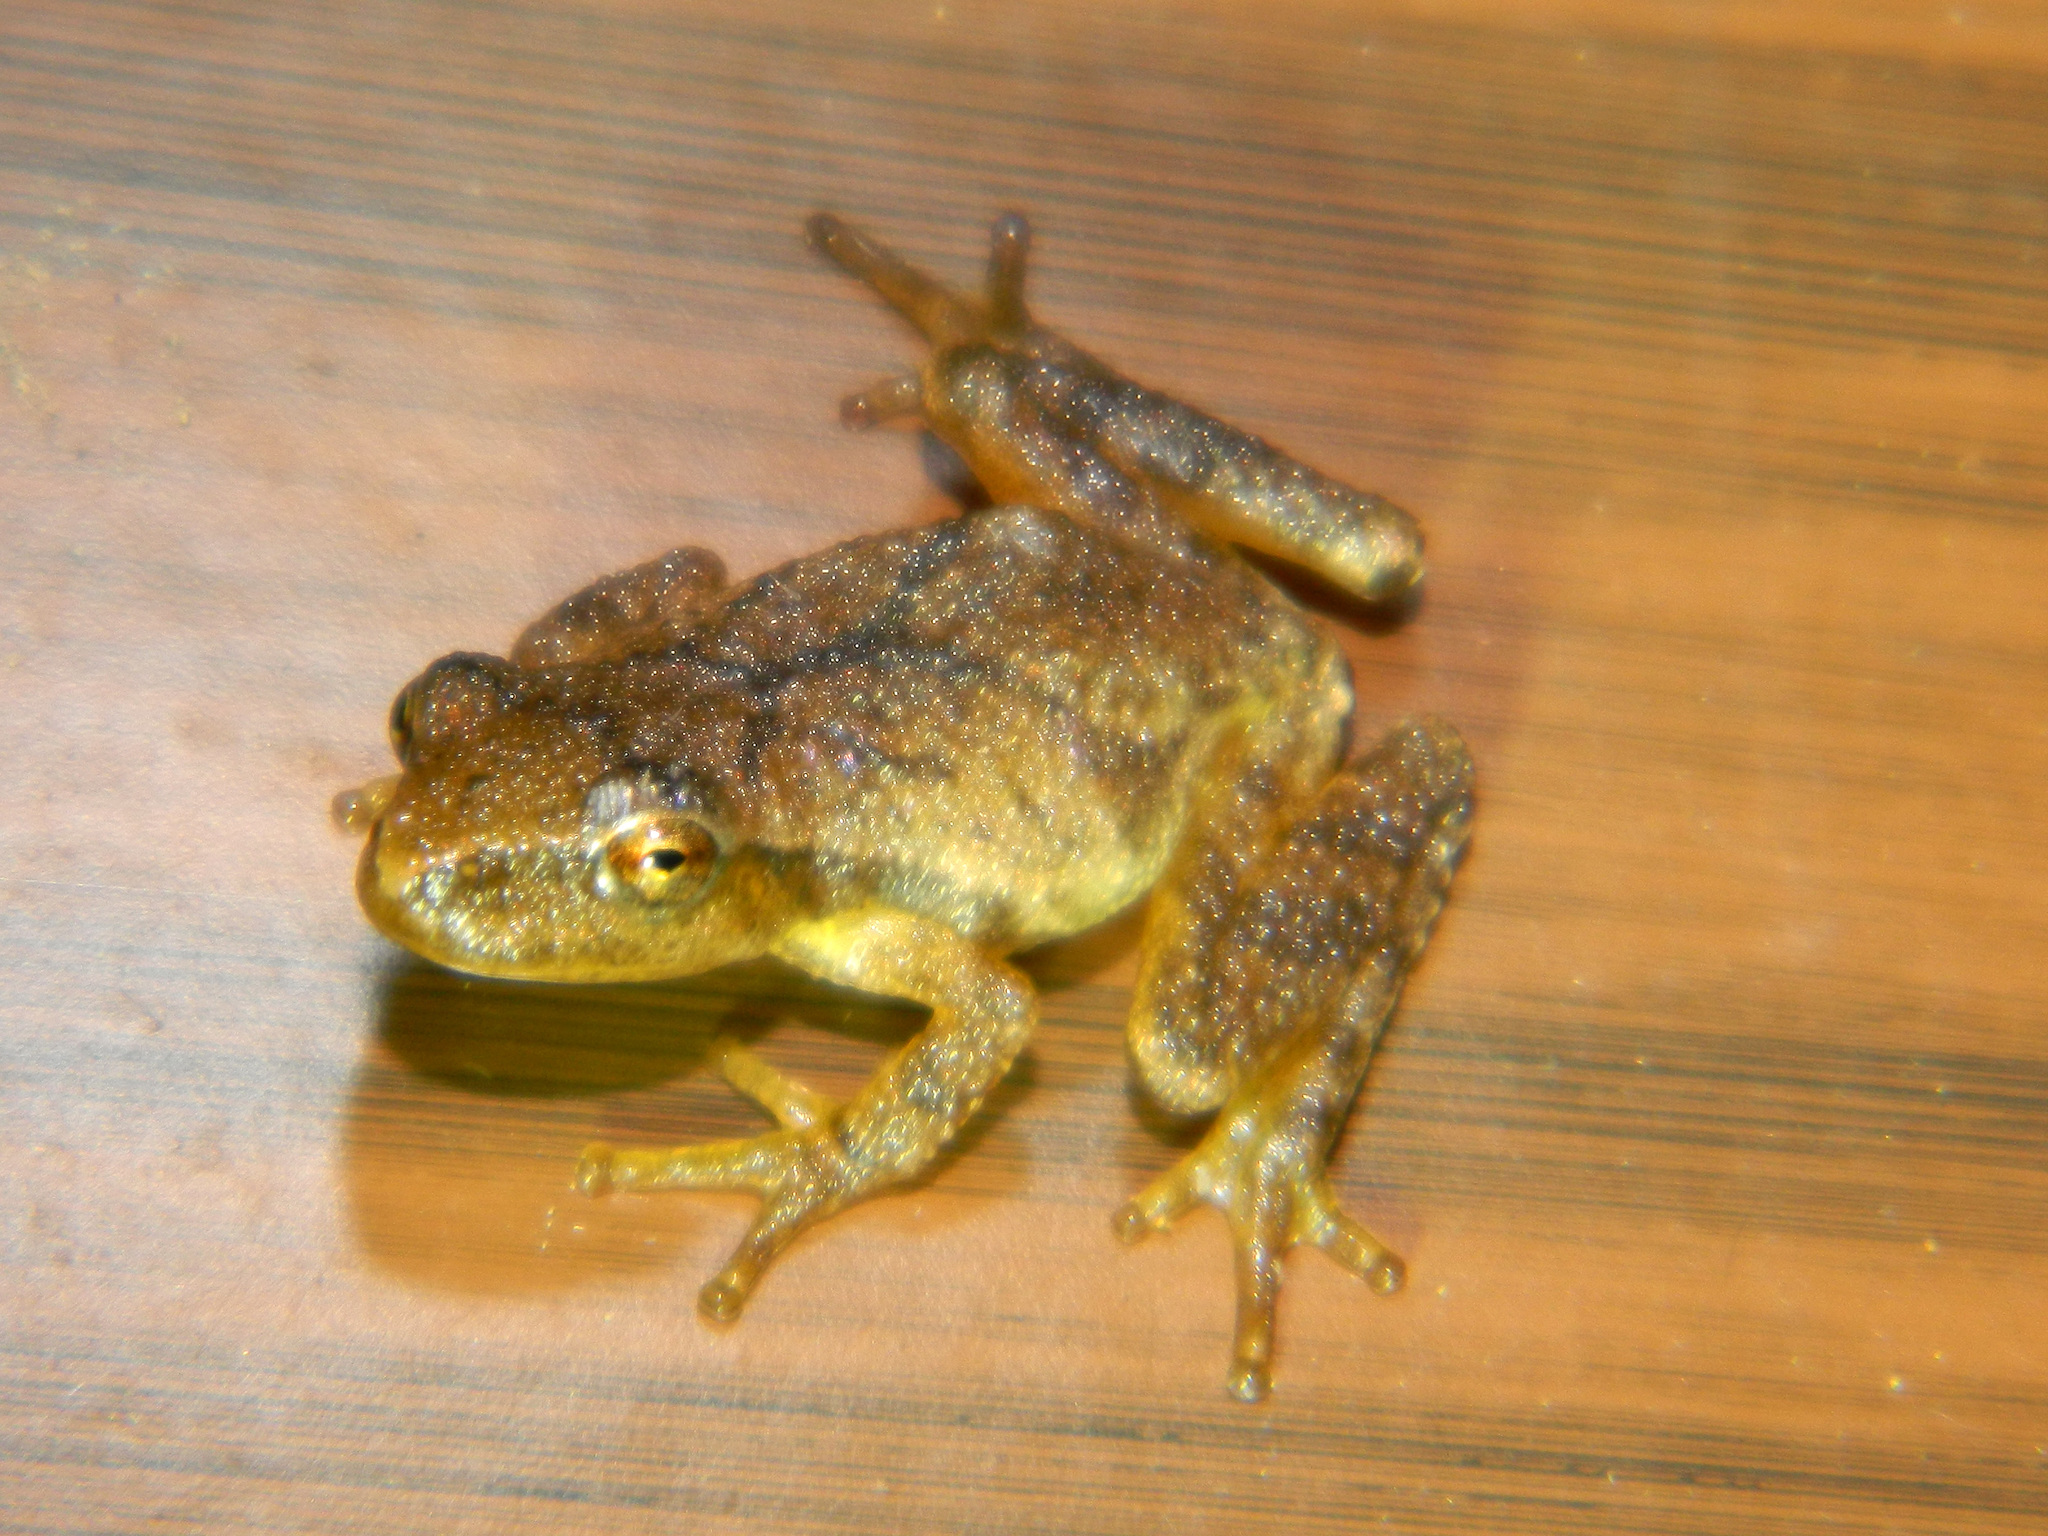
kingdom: Animalia
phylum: Chordata
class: Amphibia
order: Anura
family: Hylidae
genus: Pseudacris
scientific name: Pseudacris crucifer
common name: Spring peeper
